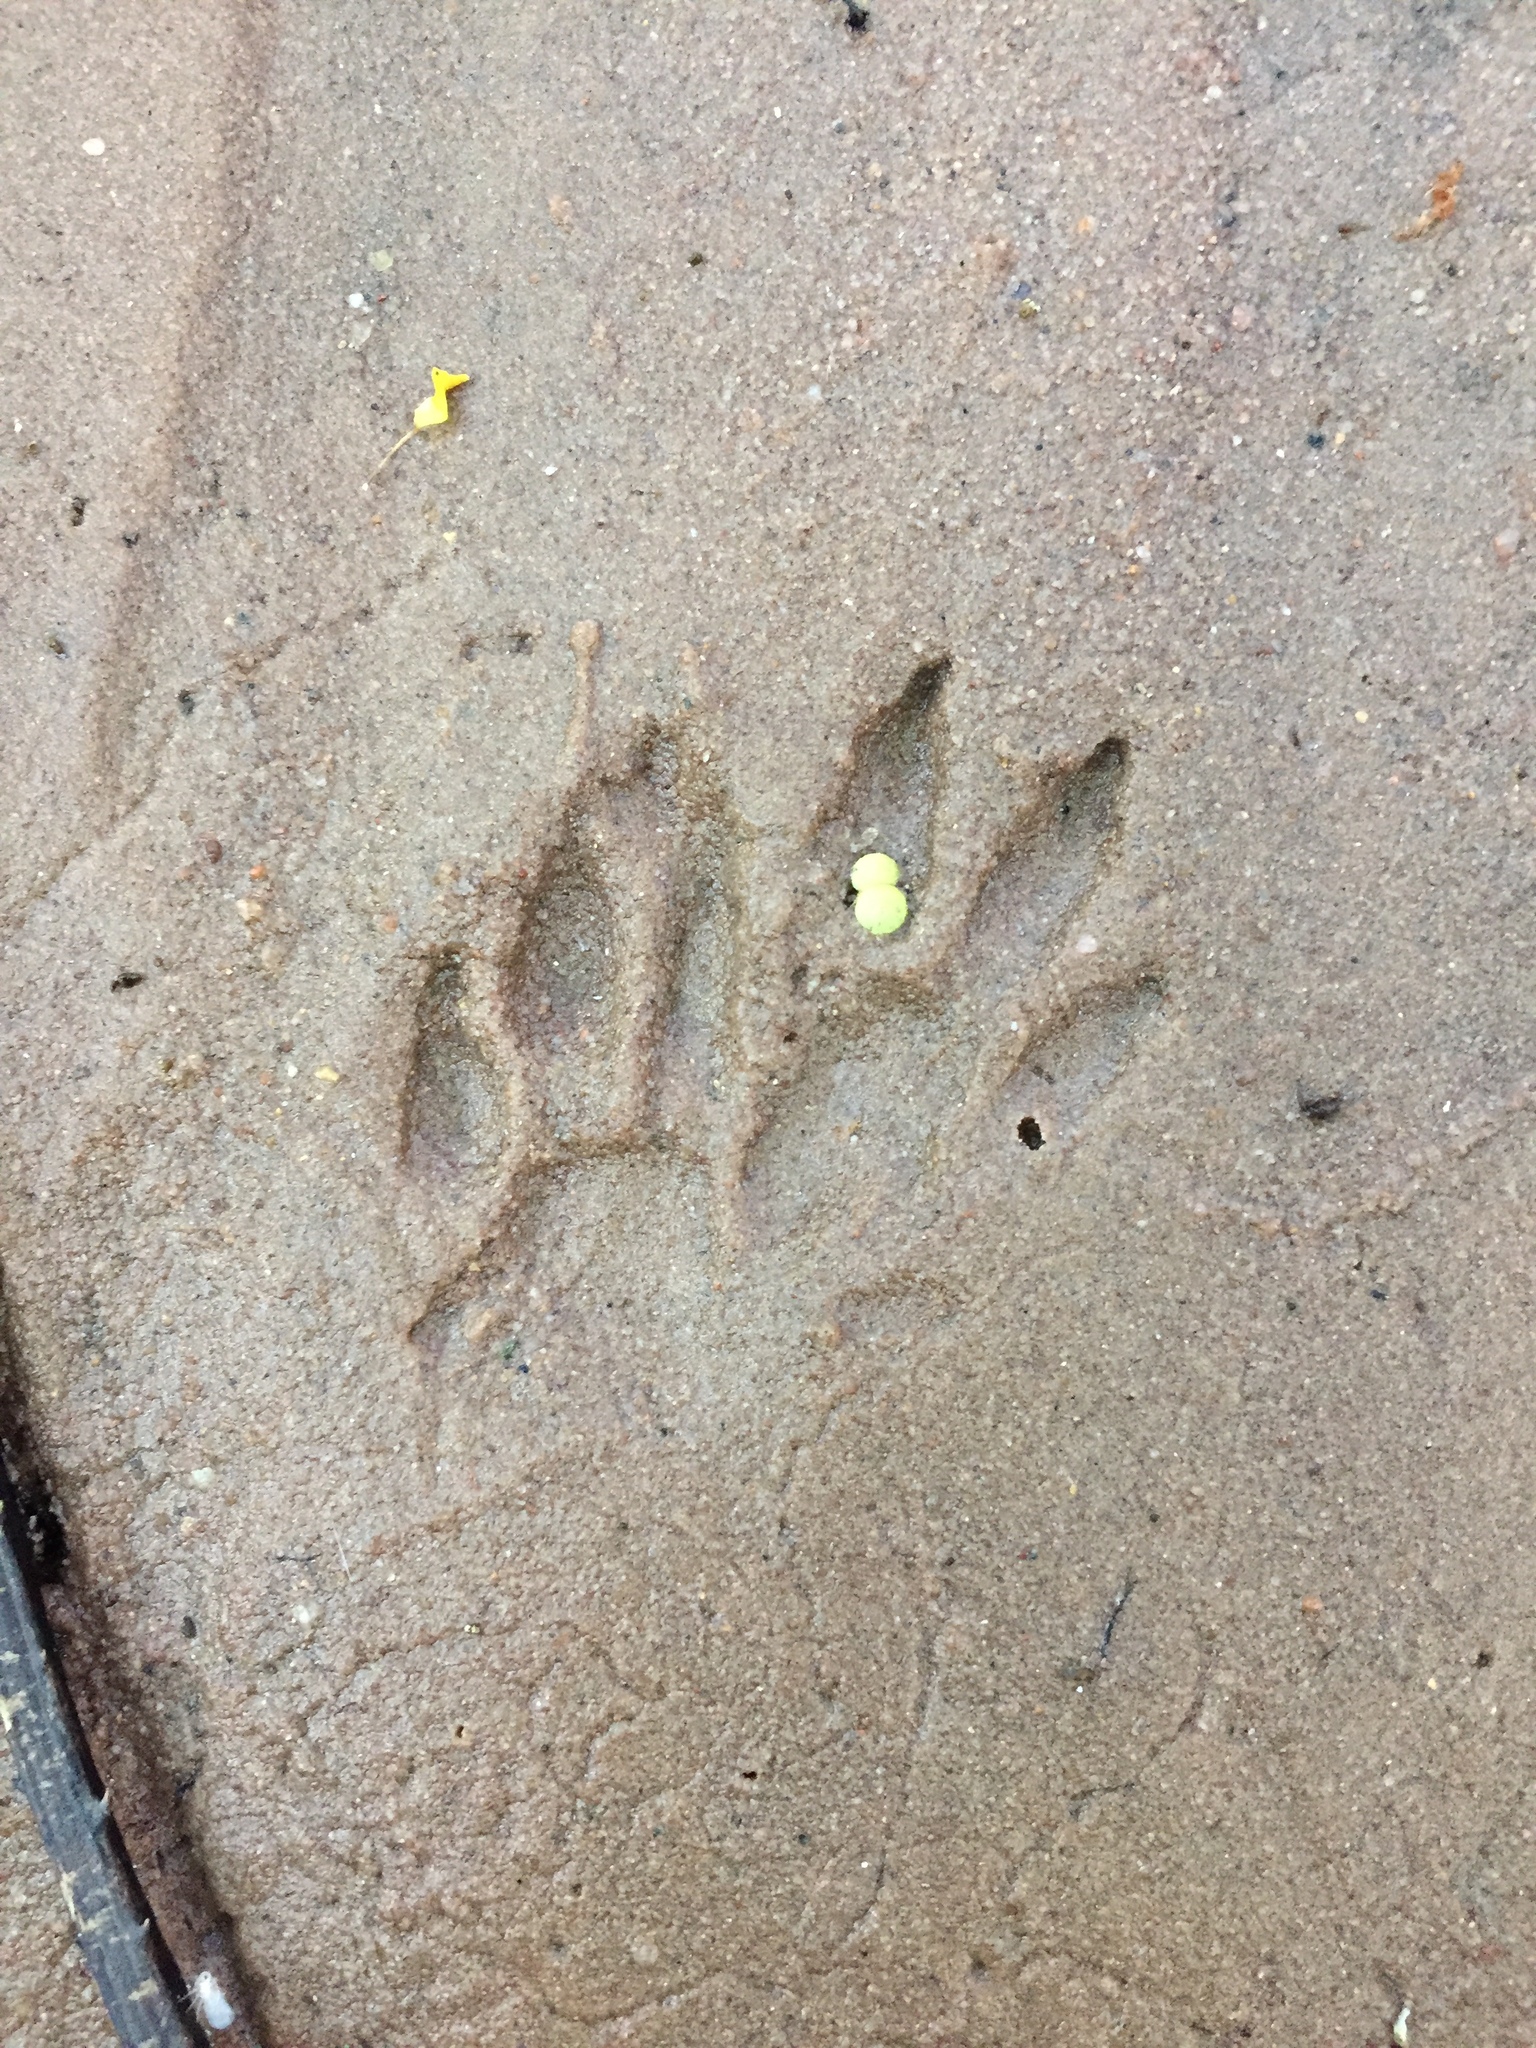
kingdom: Animalia
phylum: Chordata
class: Mammalia
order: Carnivora
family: Herpestidae
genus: Atilax
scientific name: Atilax paludinosus
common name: Marsh mongoose
